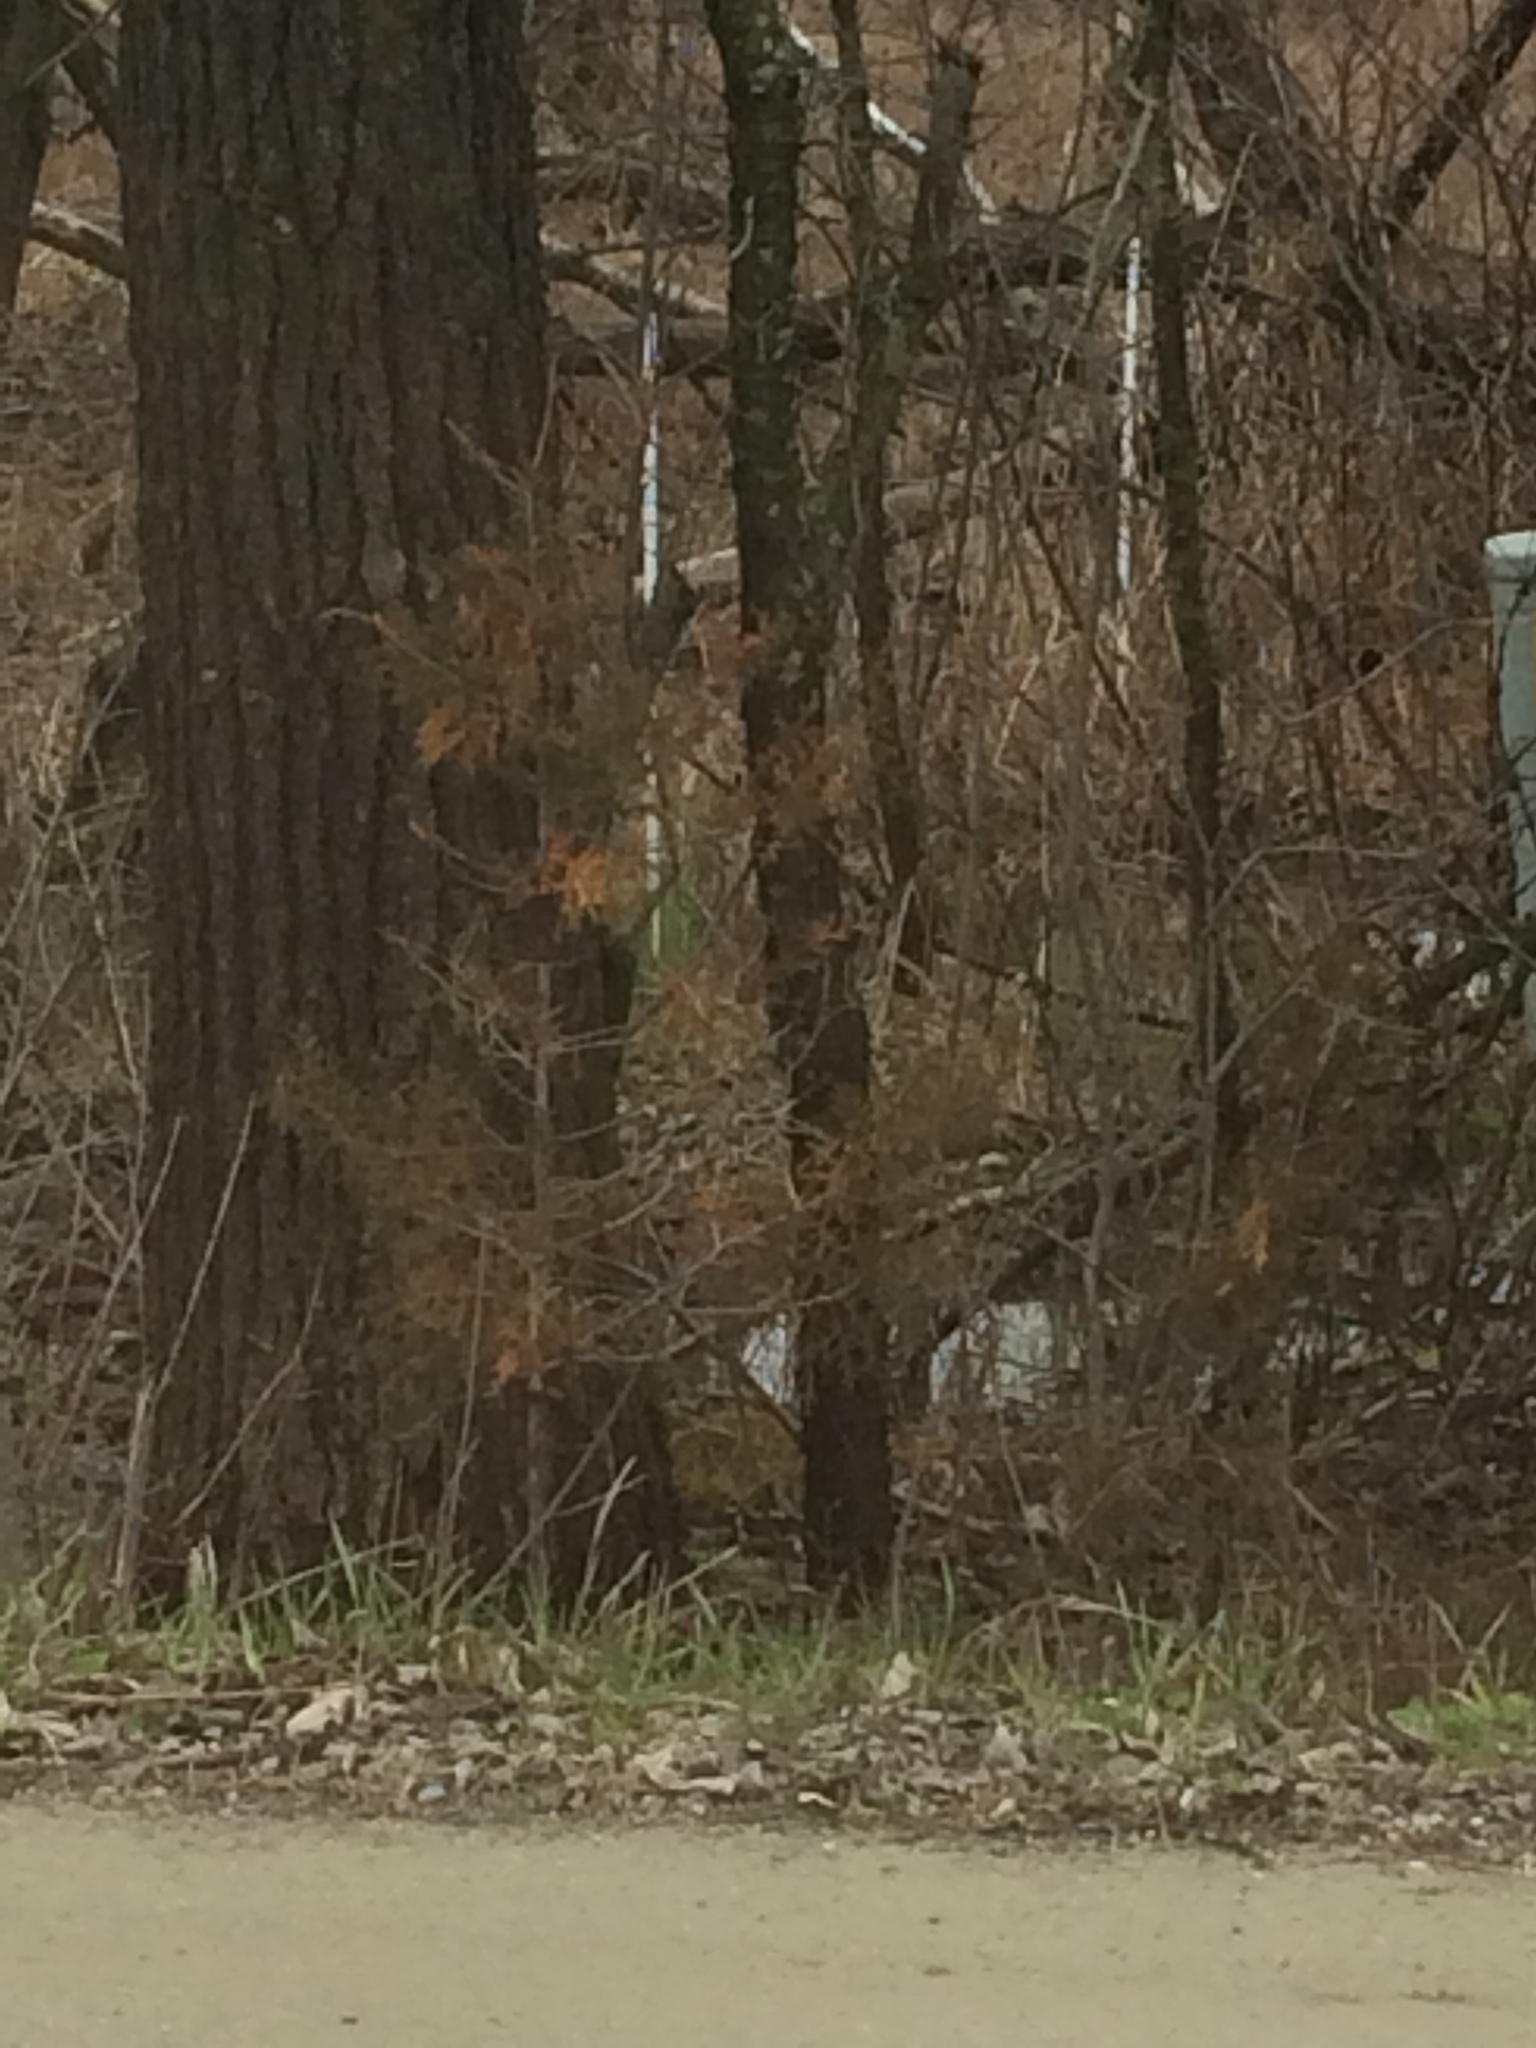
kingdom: Plantae
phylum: Tracheophyta
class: Pinopsida
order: Pinales
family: Cupressaceae
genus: Juniperus
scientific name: Juniperus virginiana
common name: Red juniper
